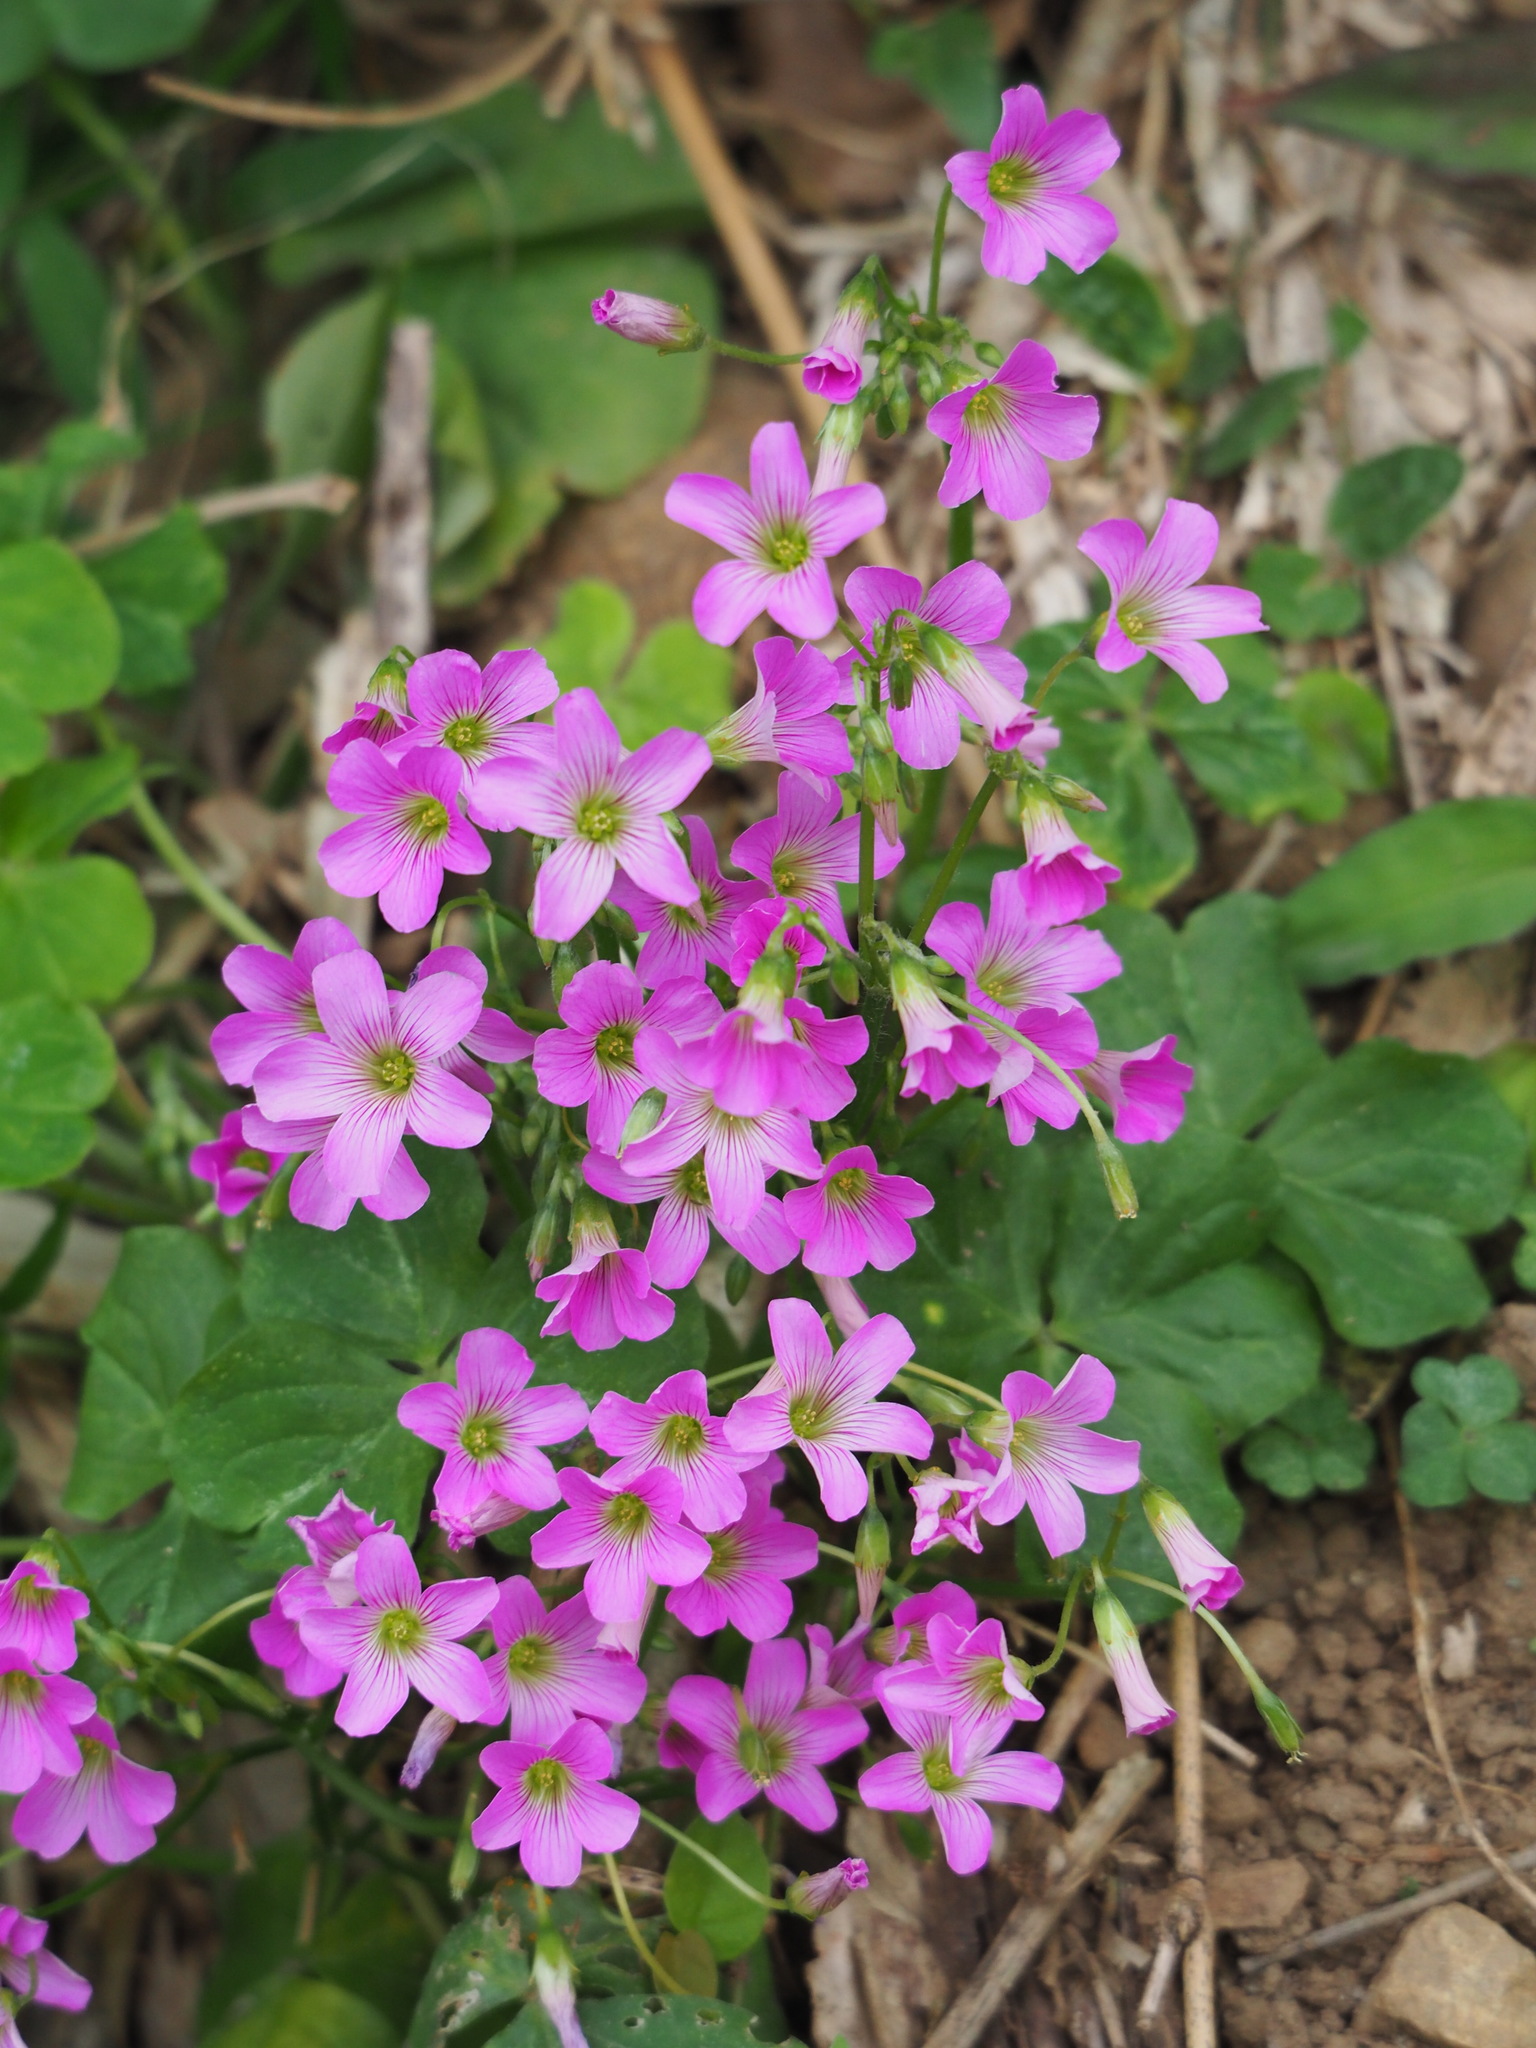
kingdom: Plantae
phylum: Tracheophyta
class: Magnoliopsida
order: Oxalidales
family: Oxalidaceae
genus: Oxalis
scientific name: Oxalis debilis
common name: Large-flowered pink-sorrel
